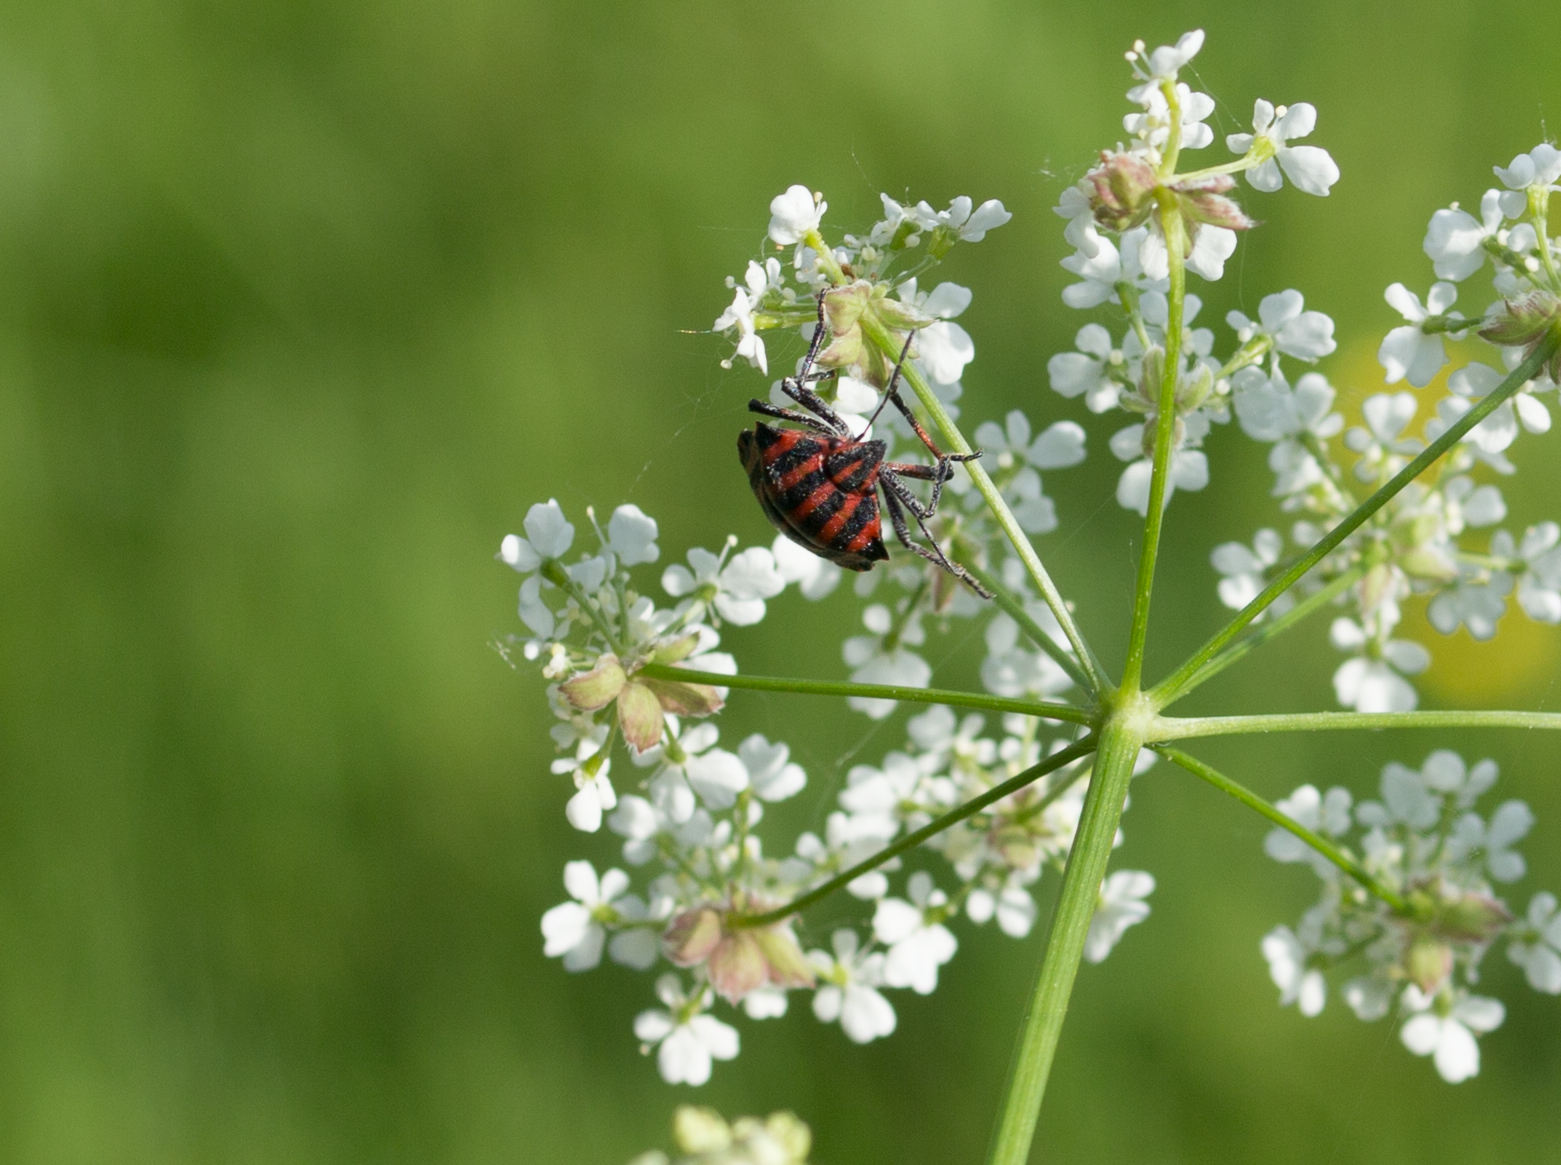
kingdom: Animalia
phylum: Arthropoda
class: Insecta
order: Hemiptera
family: Pentatomidae
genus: Graphosoma
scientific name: Graphosoma italicum
